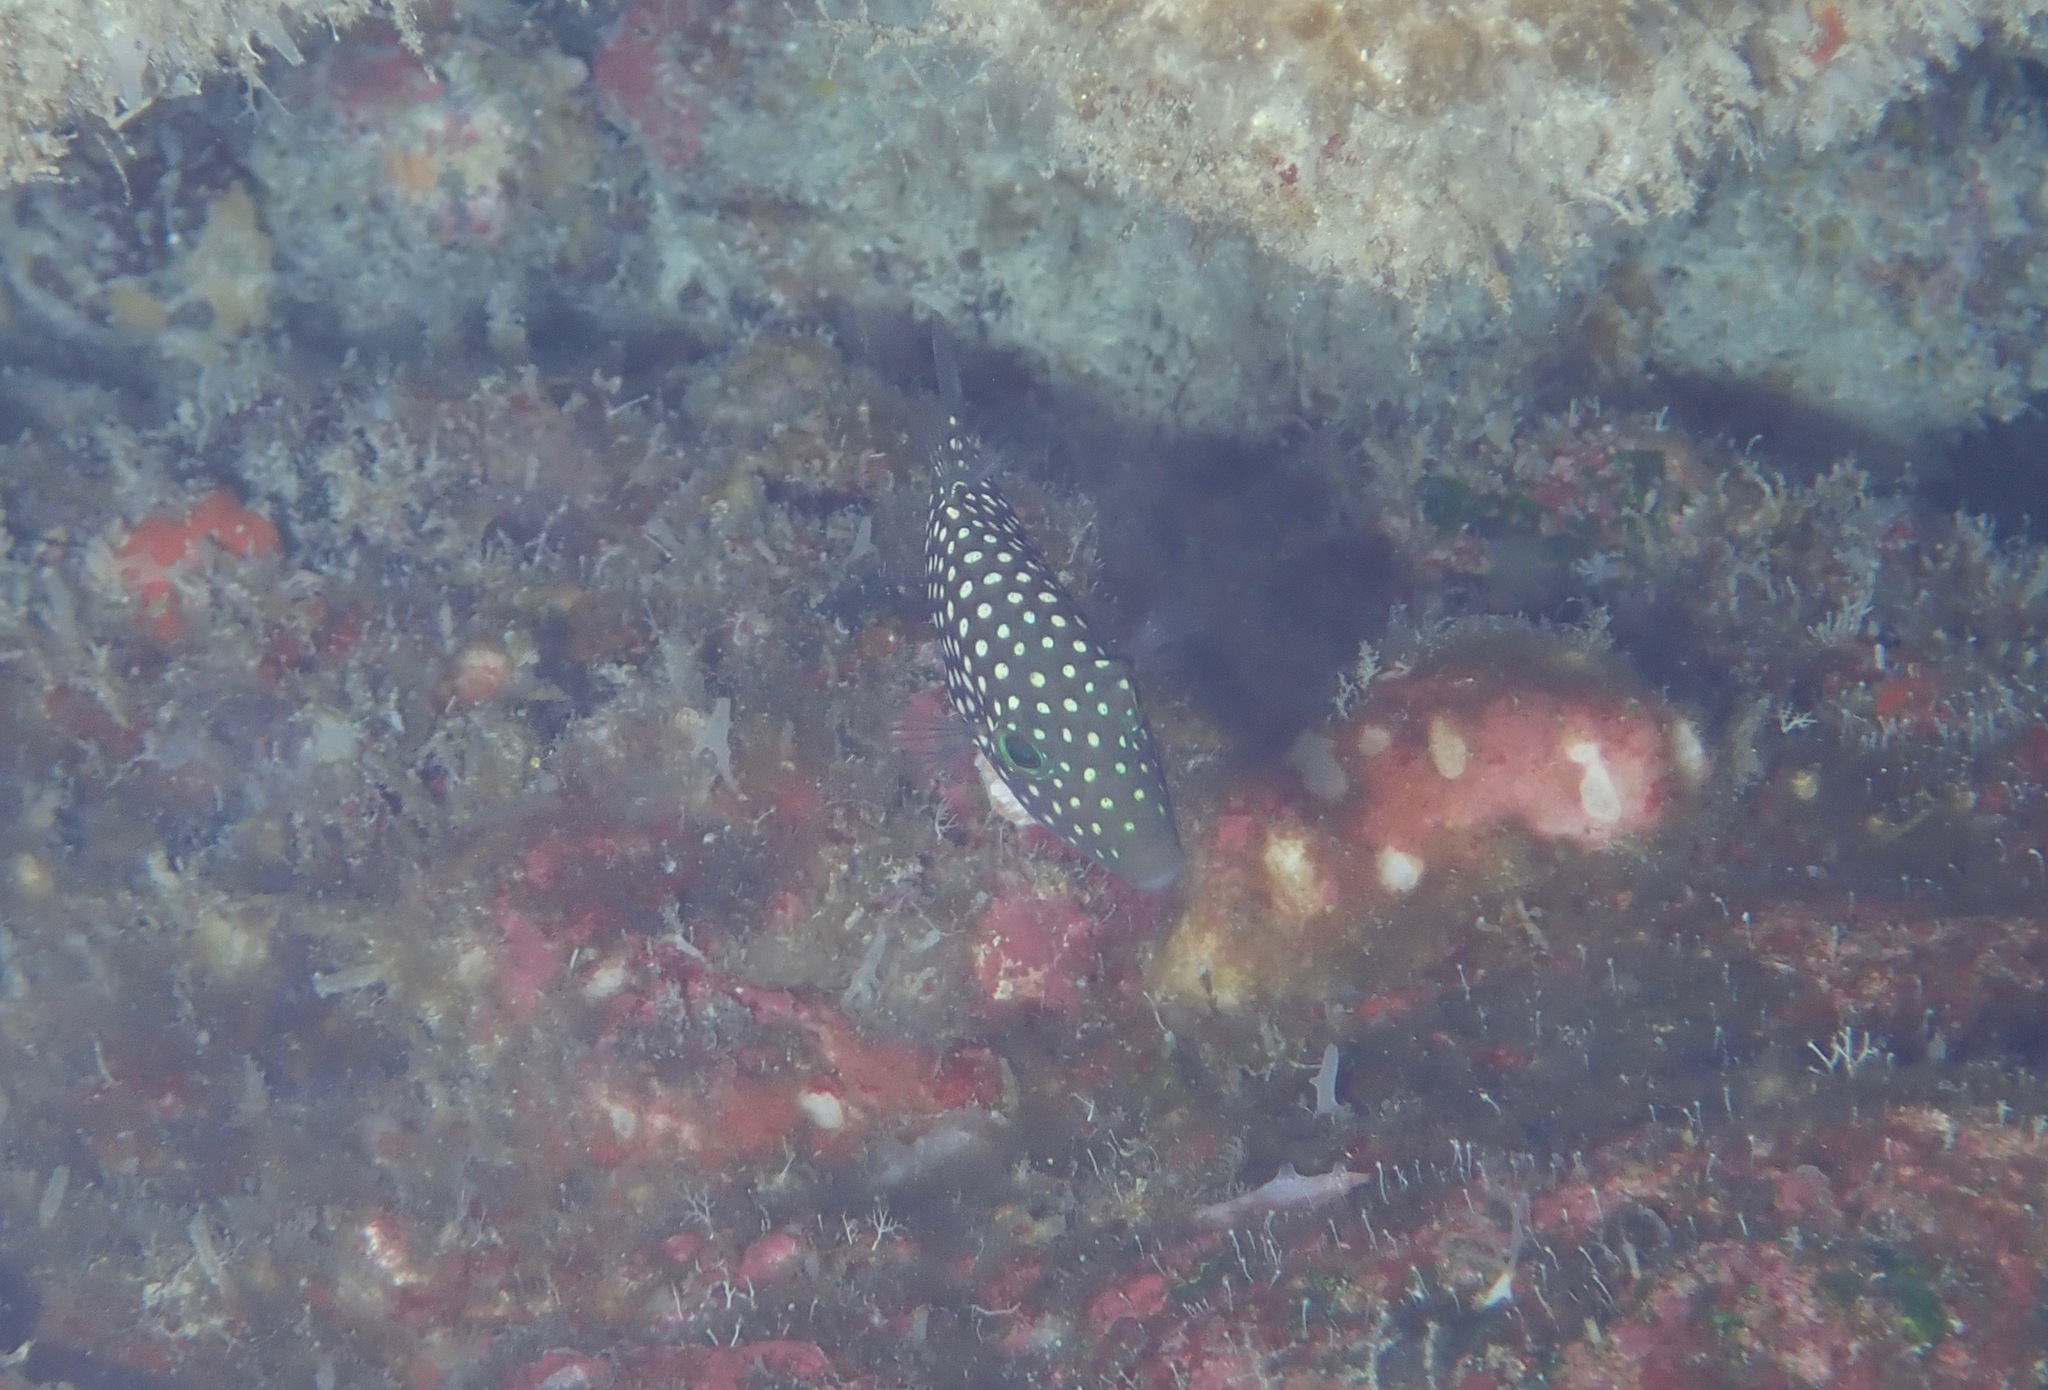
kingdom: Animalia
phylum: Chordata
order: Tetraodontiformes
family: Tetraodontidae
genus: Canthigaster
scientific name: Canthigaster jactator
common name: Hawaiian whitespotted toby
